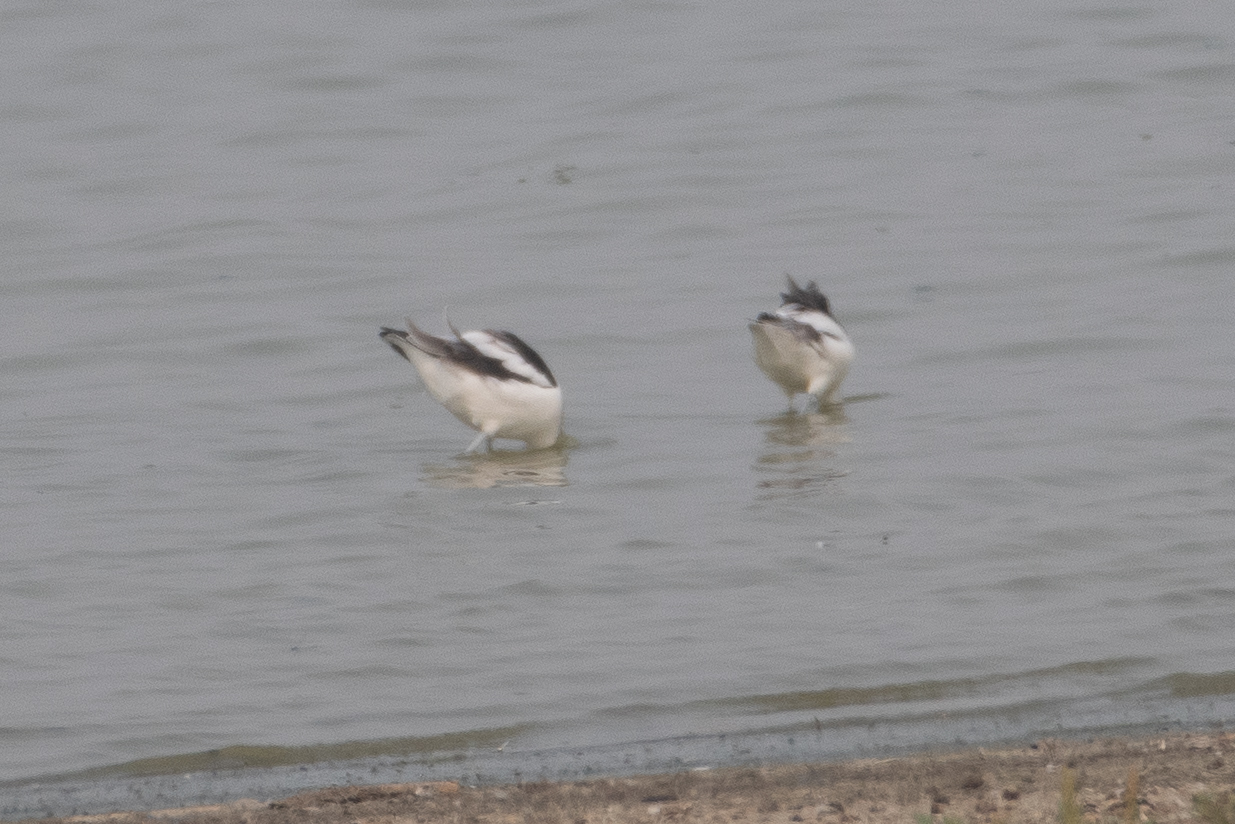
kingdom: Animalia
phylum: Chordata
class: Aves
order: Charadriiformes
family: Recurvirostridae
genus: Recurvirostra
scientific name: Recurvirostra americana
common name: American avocet
